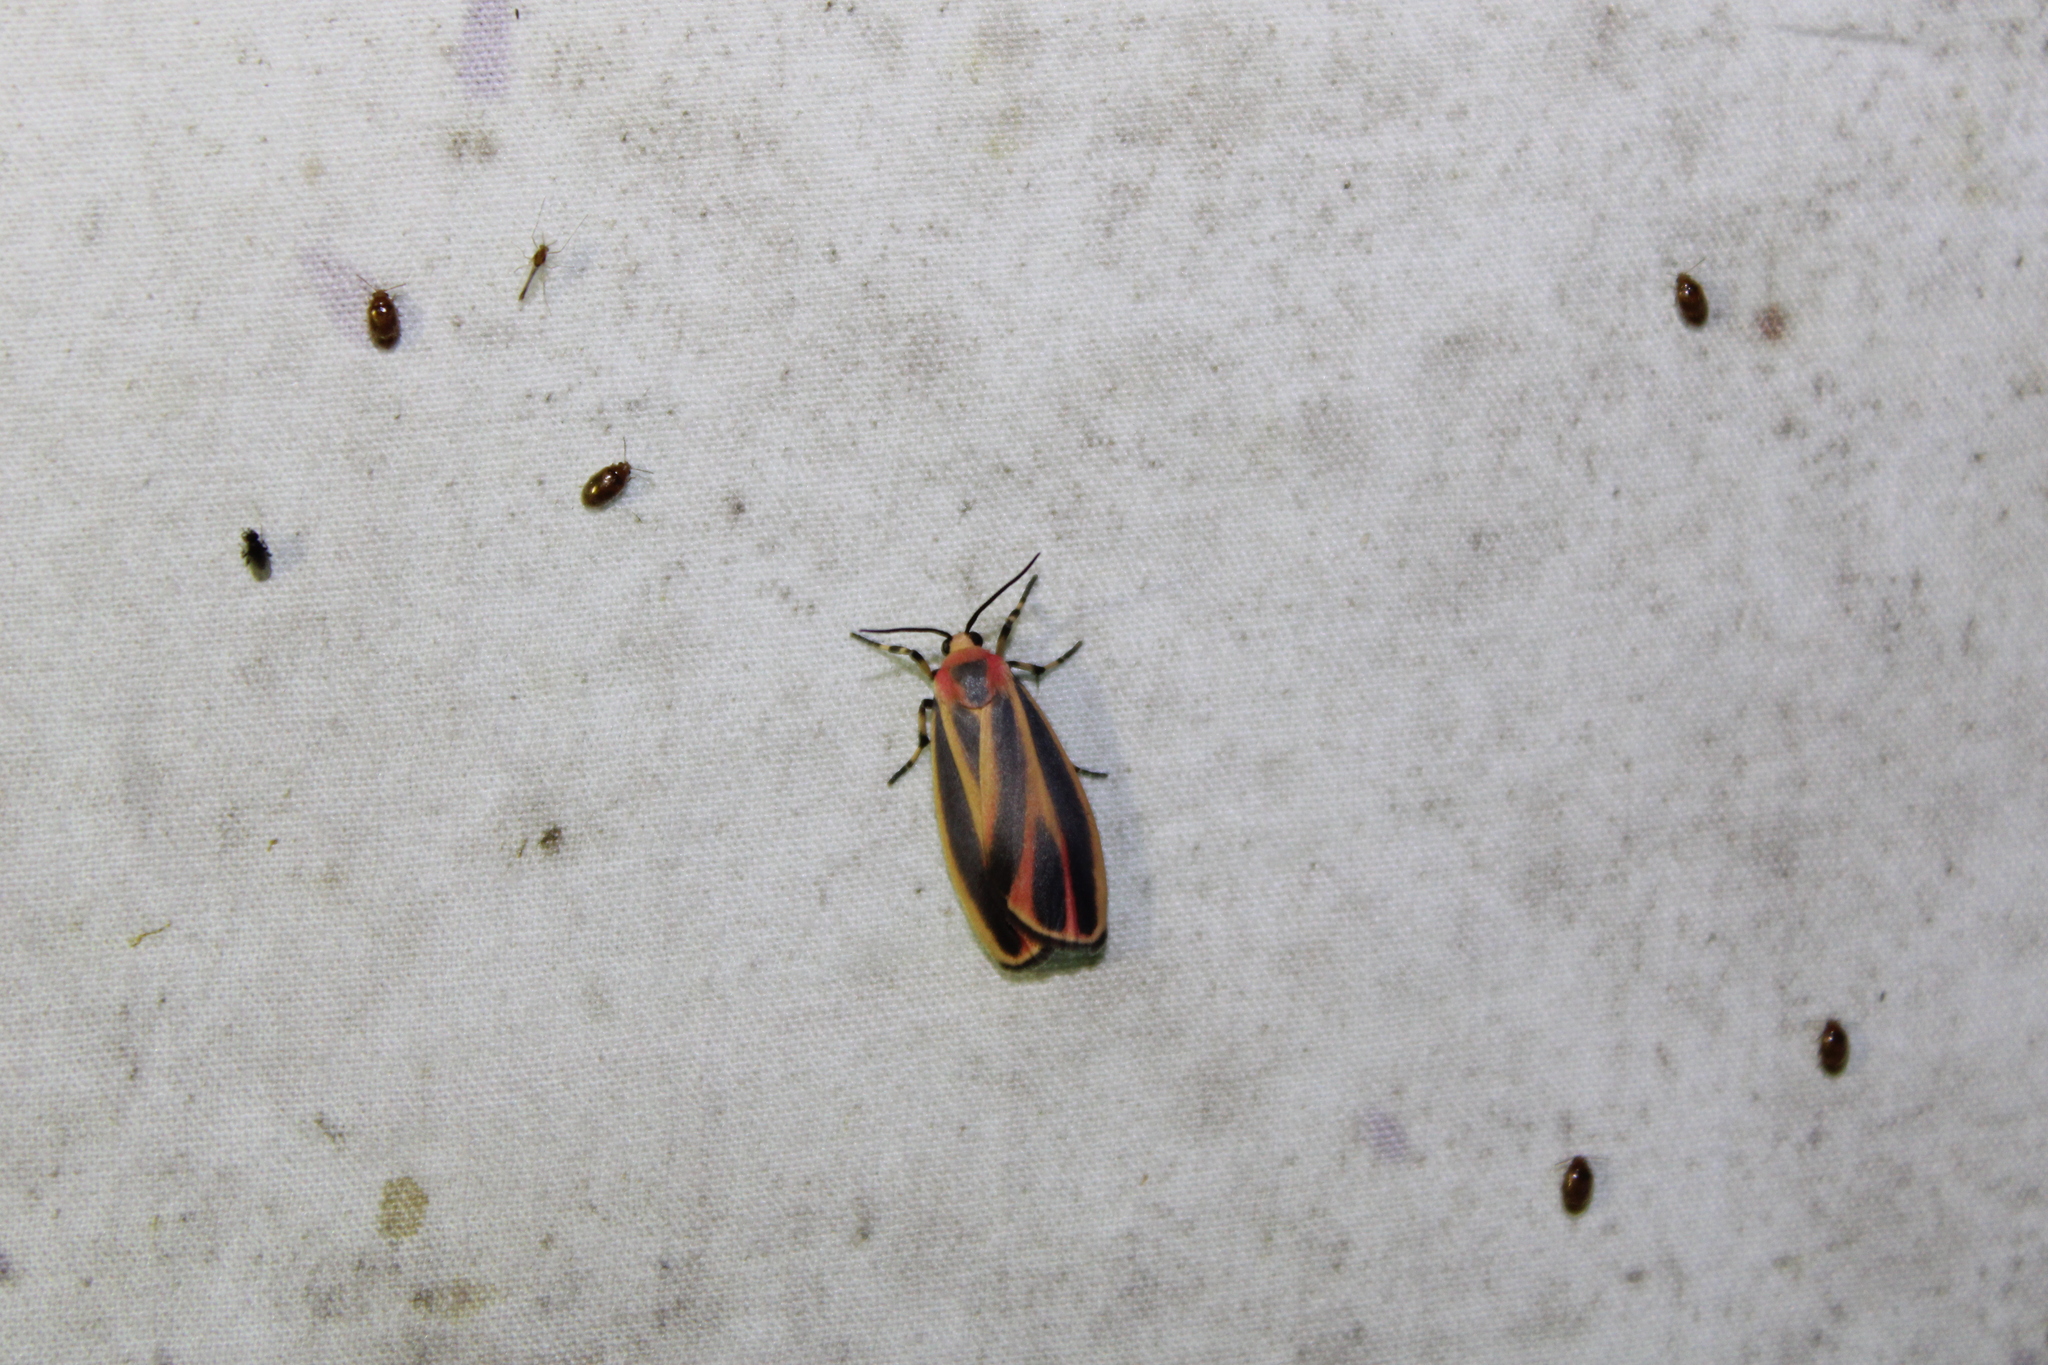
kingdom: Animalia
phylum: Arthropoda
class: Insecta
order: Lepidoptera
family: Erebidae
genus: Hypoprepia
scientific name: Hypoprepia fucosa
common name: Painted lichen moth
